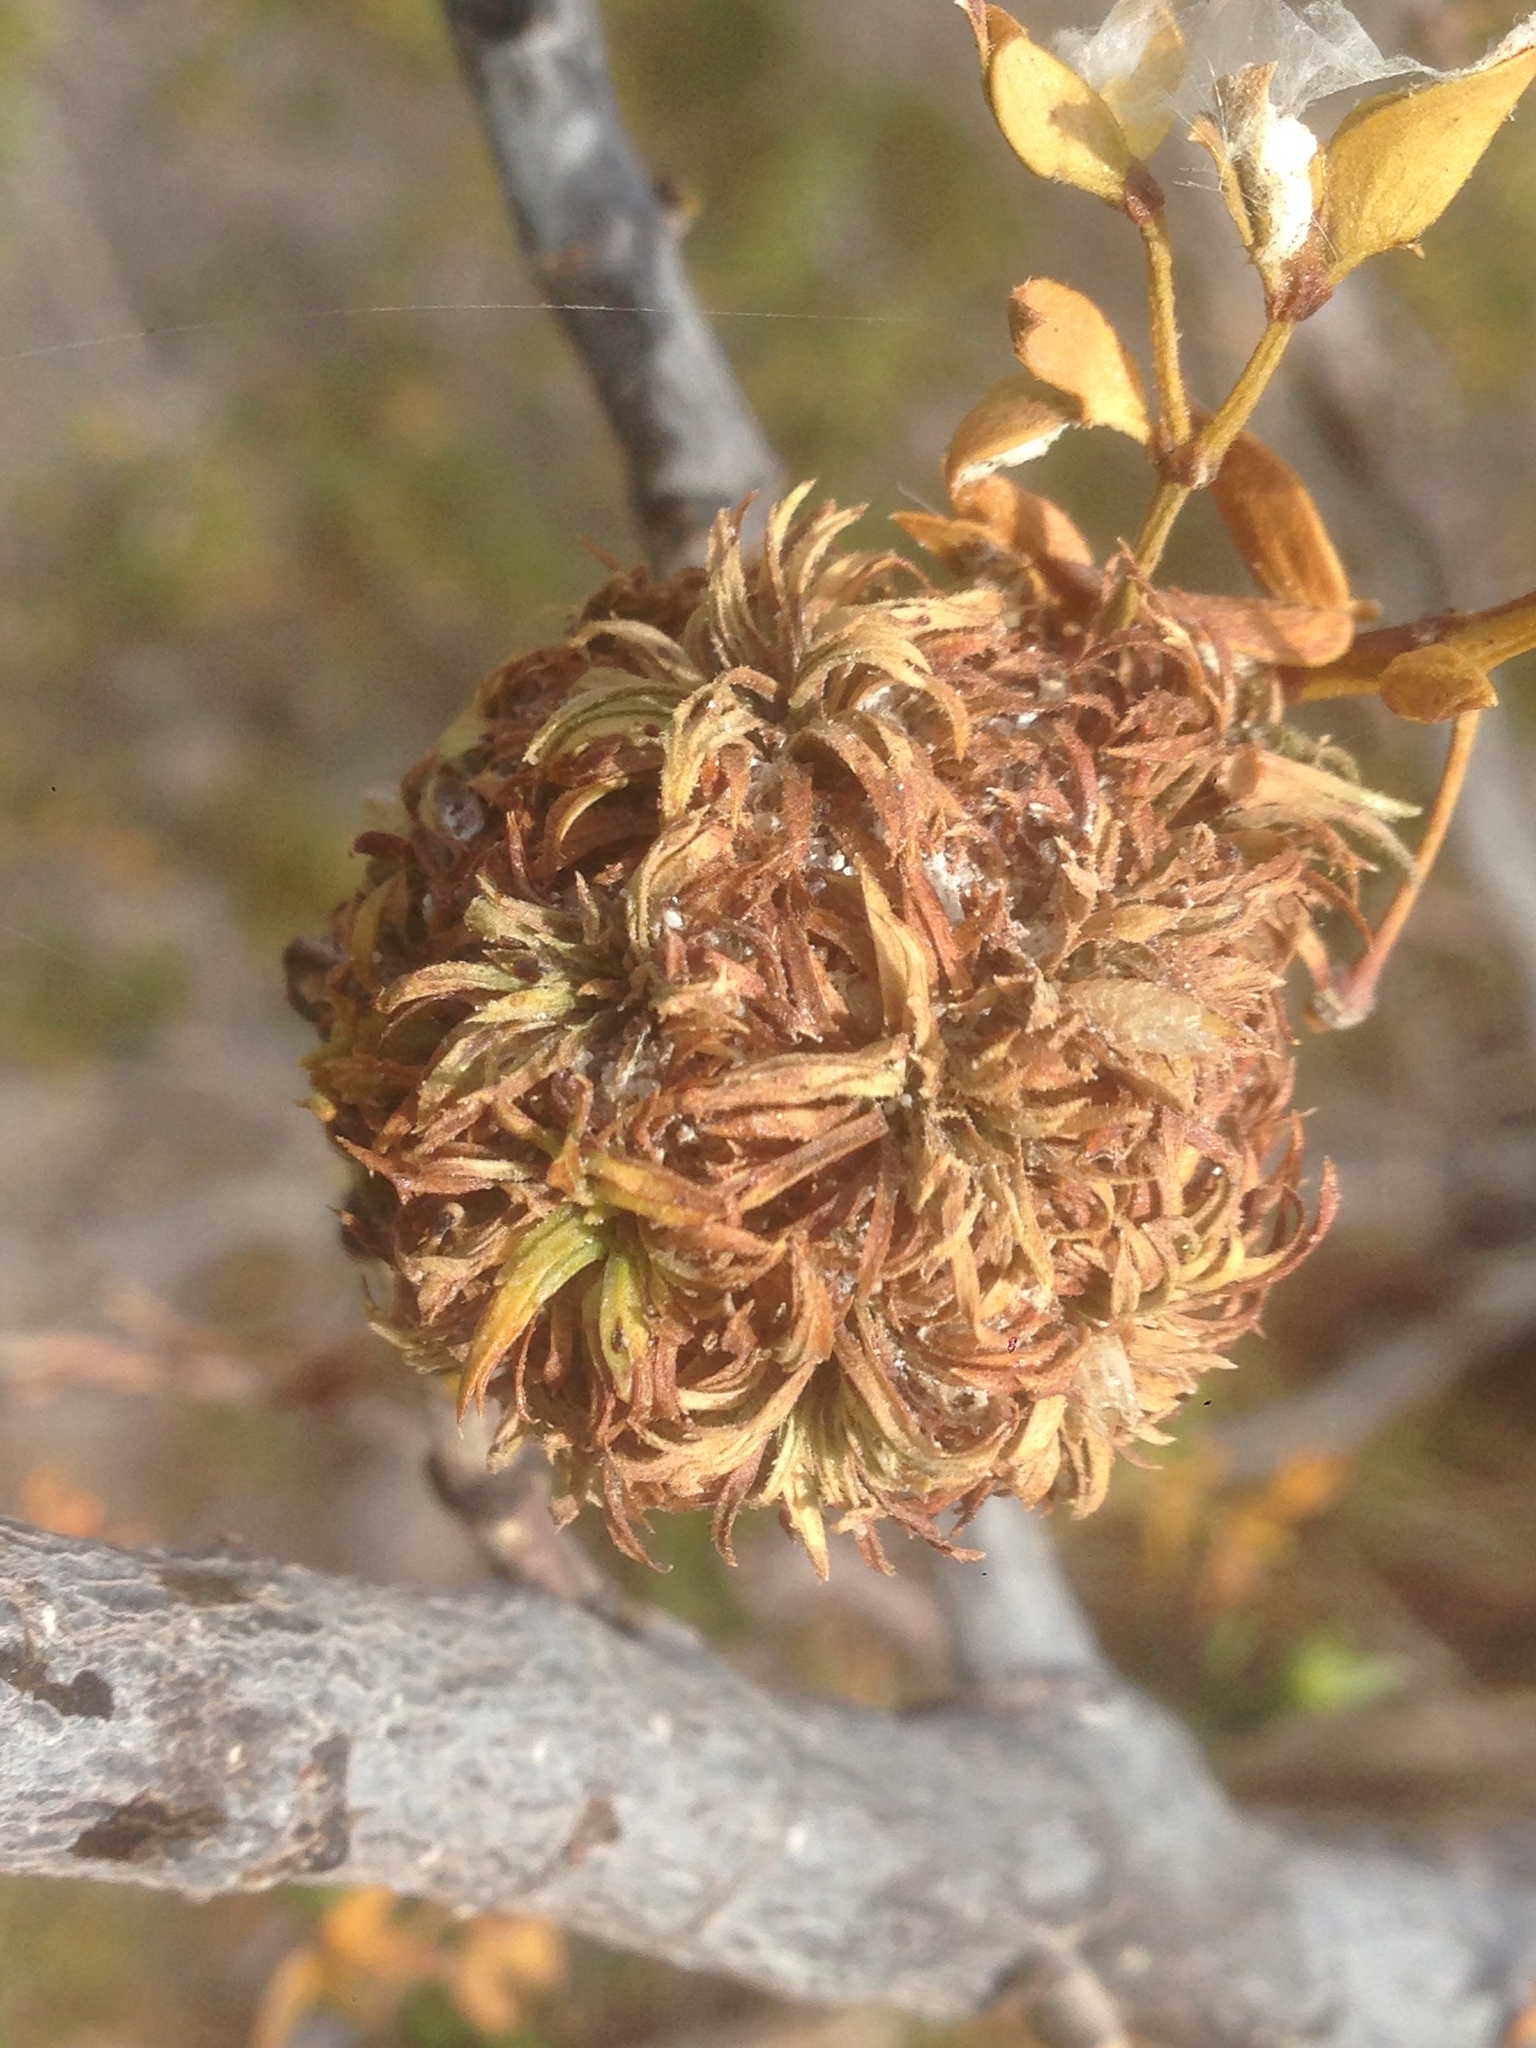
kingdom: Animalia
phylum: Arthropoda
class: Insecta
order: Diptera
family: Cecidomyiidae
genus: Asphondylia
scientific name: Asphondylia auripila
